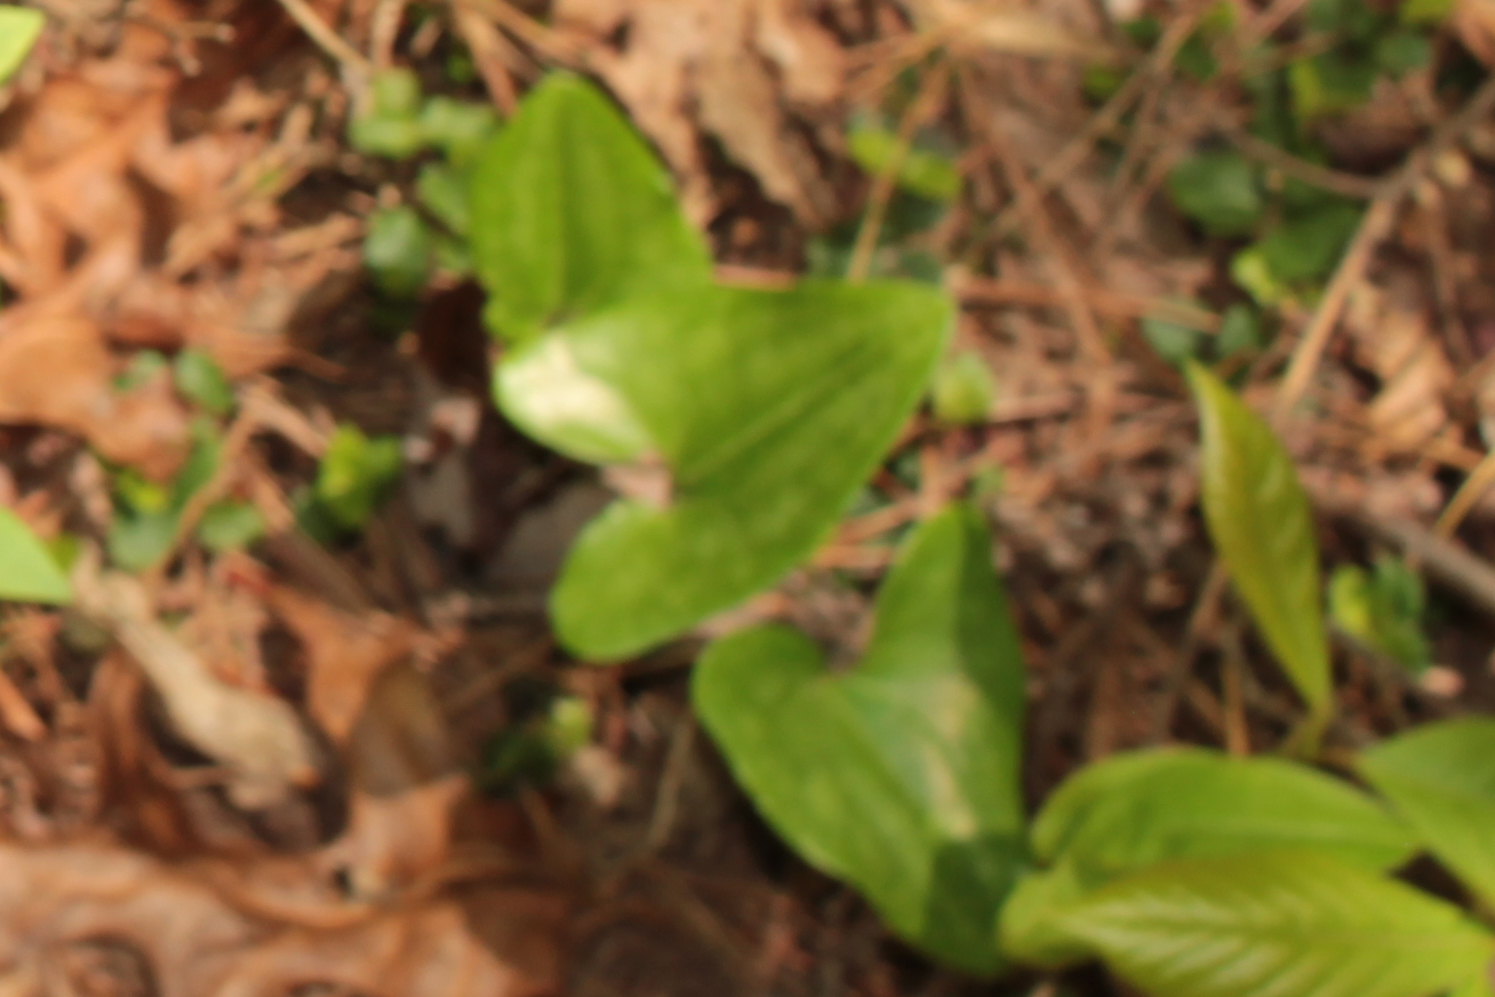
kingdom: Plantae
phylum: Tracheophyta
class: Magnoliopsida
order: Piperales
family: Aristolochiaceae
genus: Hexastylis
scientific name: Hexastylis arifolia
